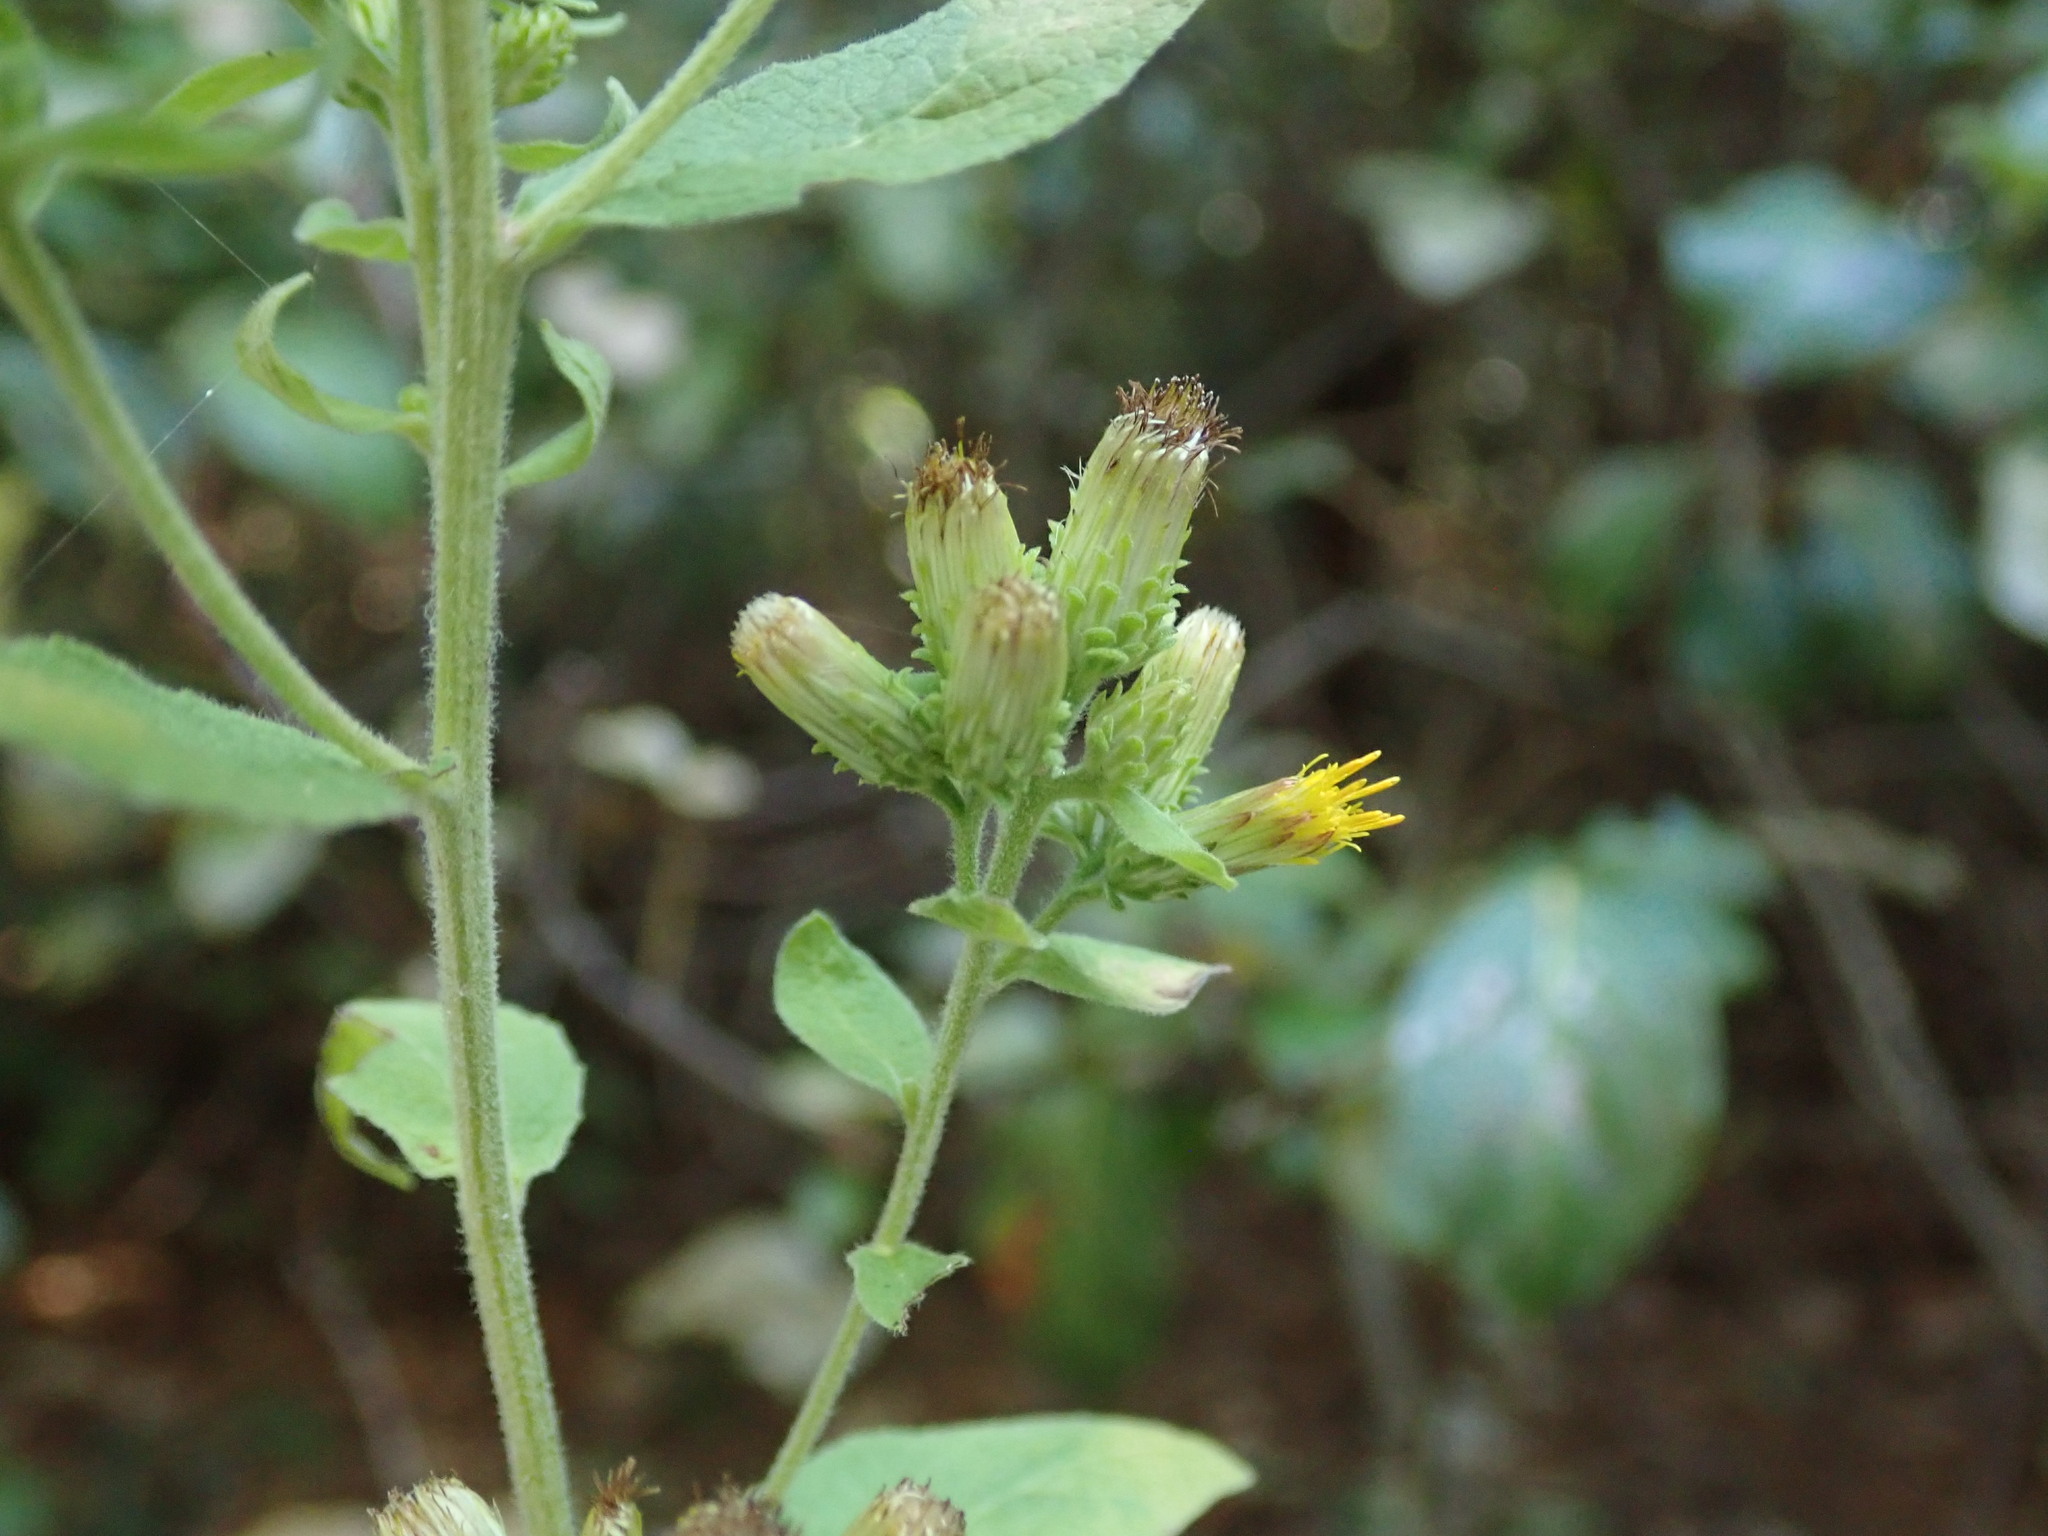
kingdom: Plantae
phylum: Tracheophyta
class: Magnoliopsida
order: Asterales
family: Asteraceae
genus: Pentanema
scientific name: Pentanema squarrosum
